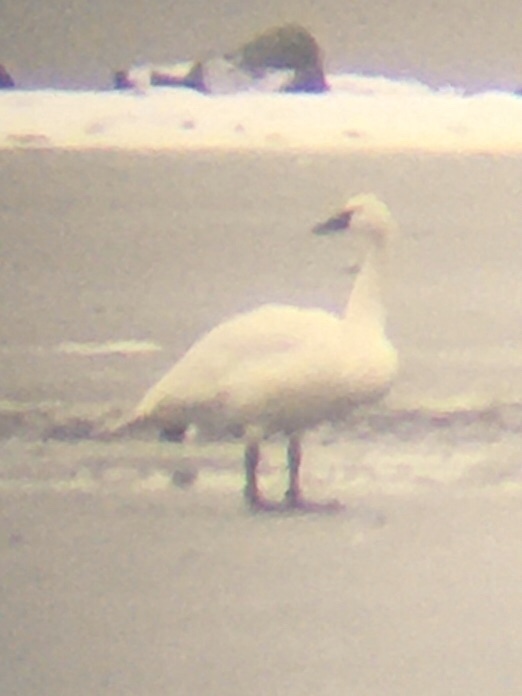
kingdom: Animalia
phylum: Chordata
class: Aves
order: Anseriformes
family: Anatidae
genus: Cygnus
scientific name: Cygnus columbianus
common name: Tundra swan
